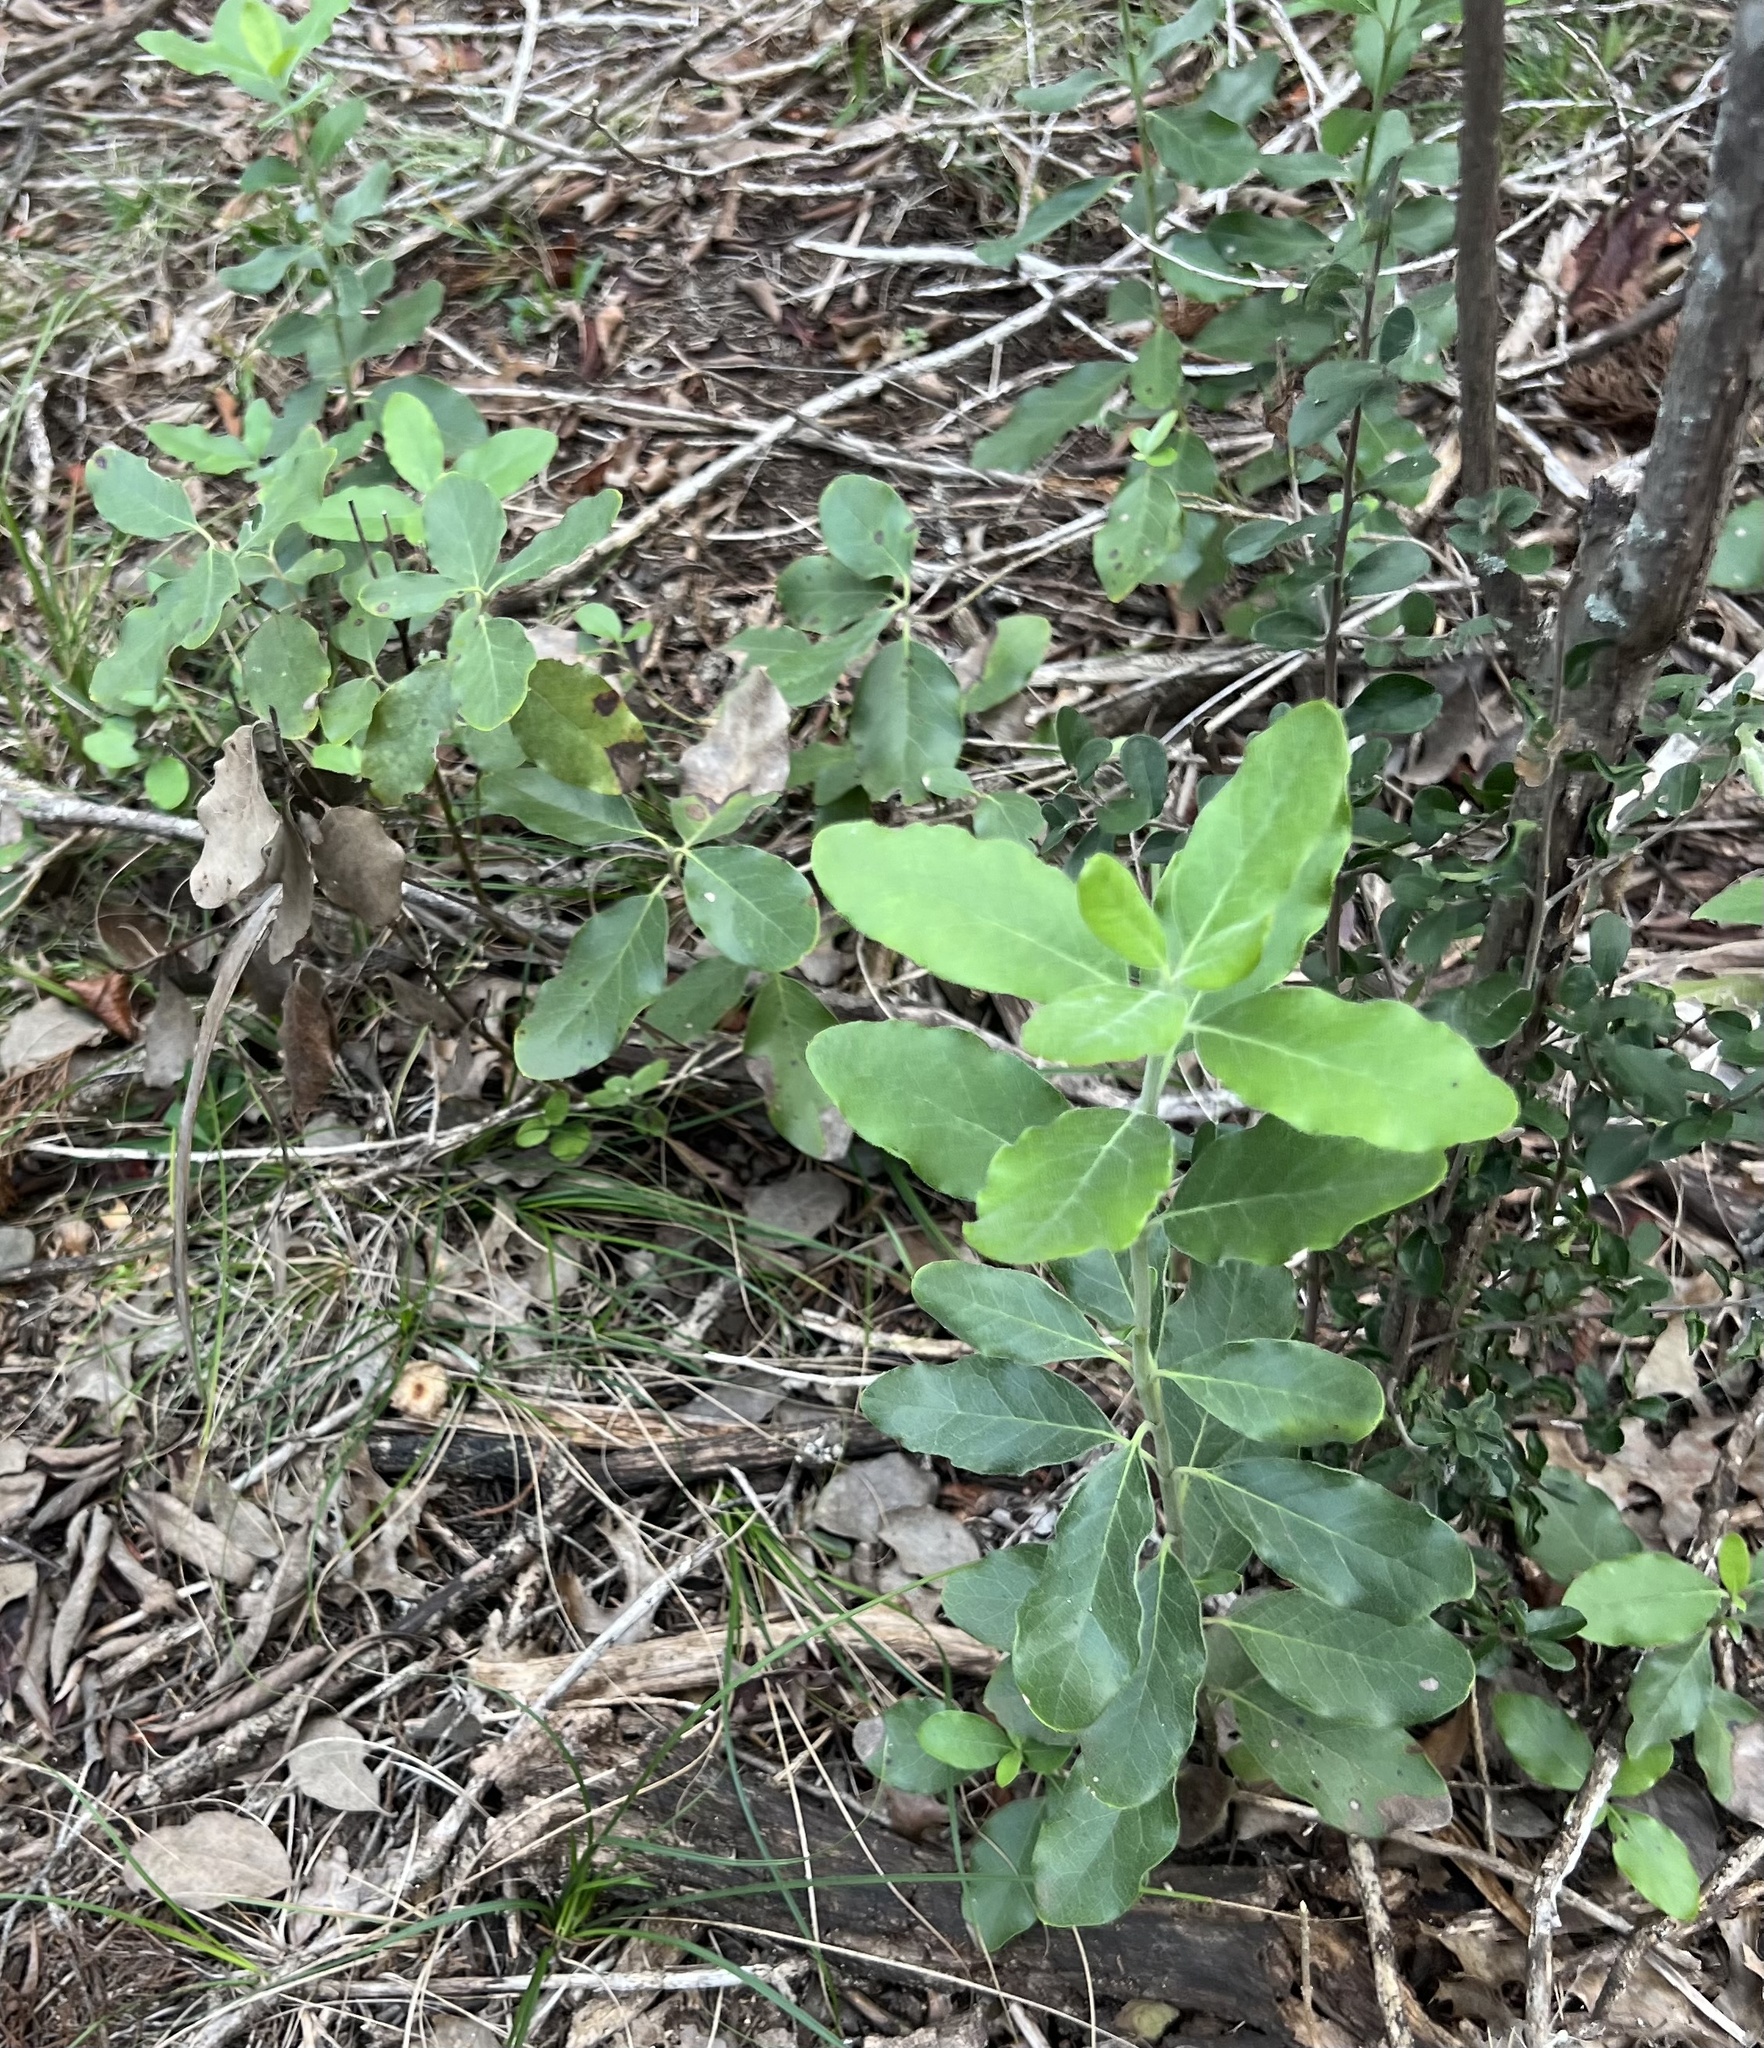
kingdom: Plantae
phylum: Tracheophyta
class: Magnoliopsida
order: Garryales
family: Garryaceae
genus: Garrya
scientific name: Garrya lindheimeri
